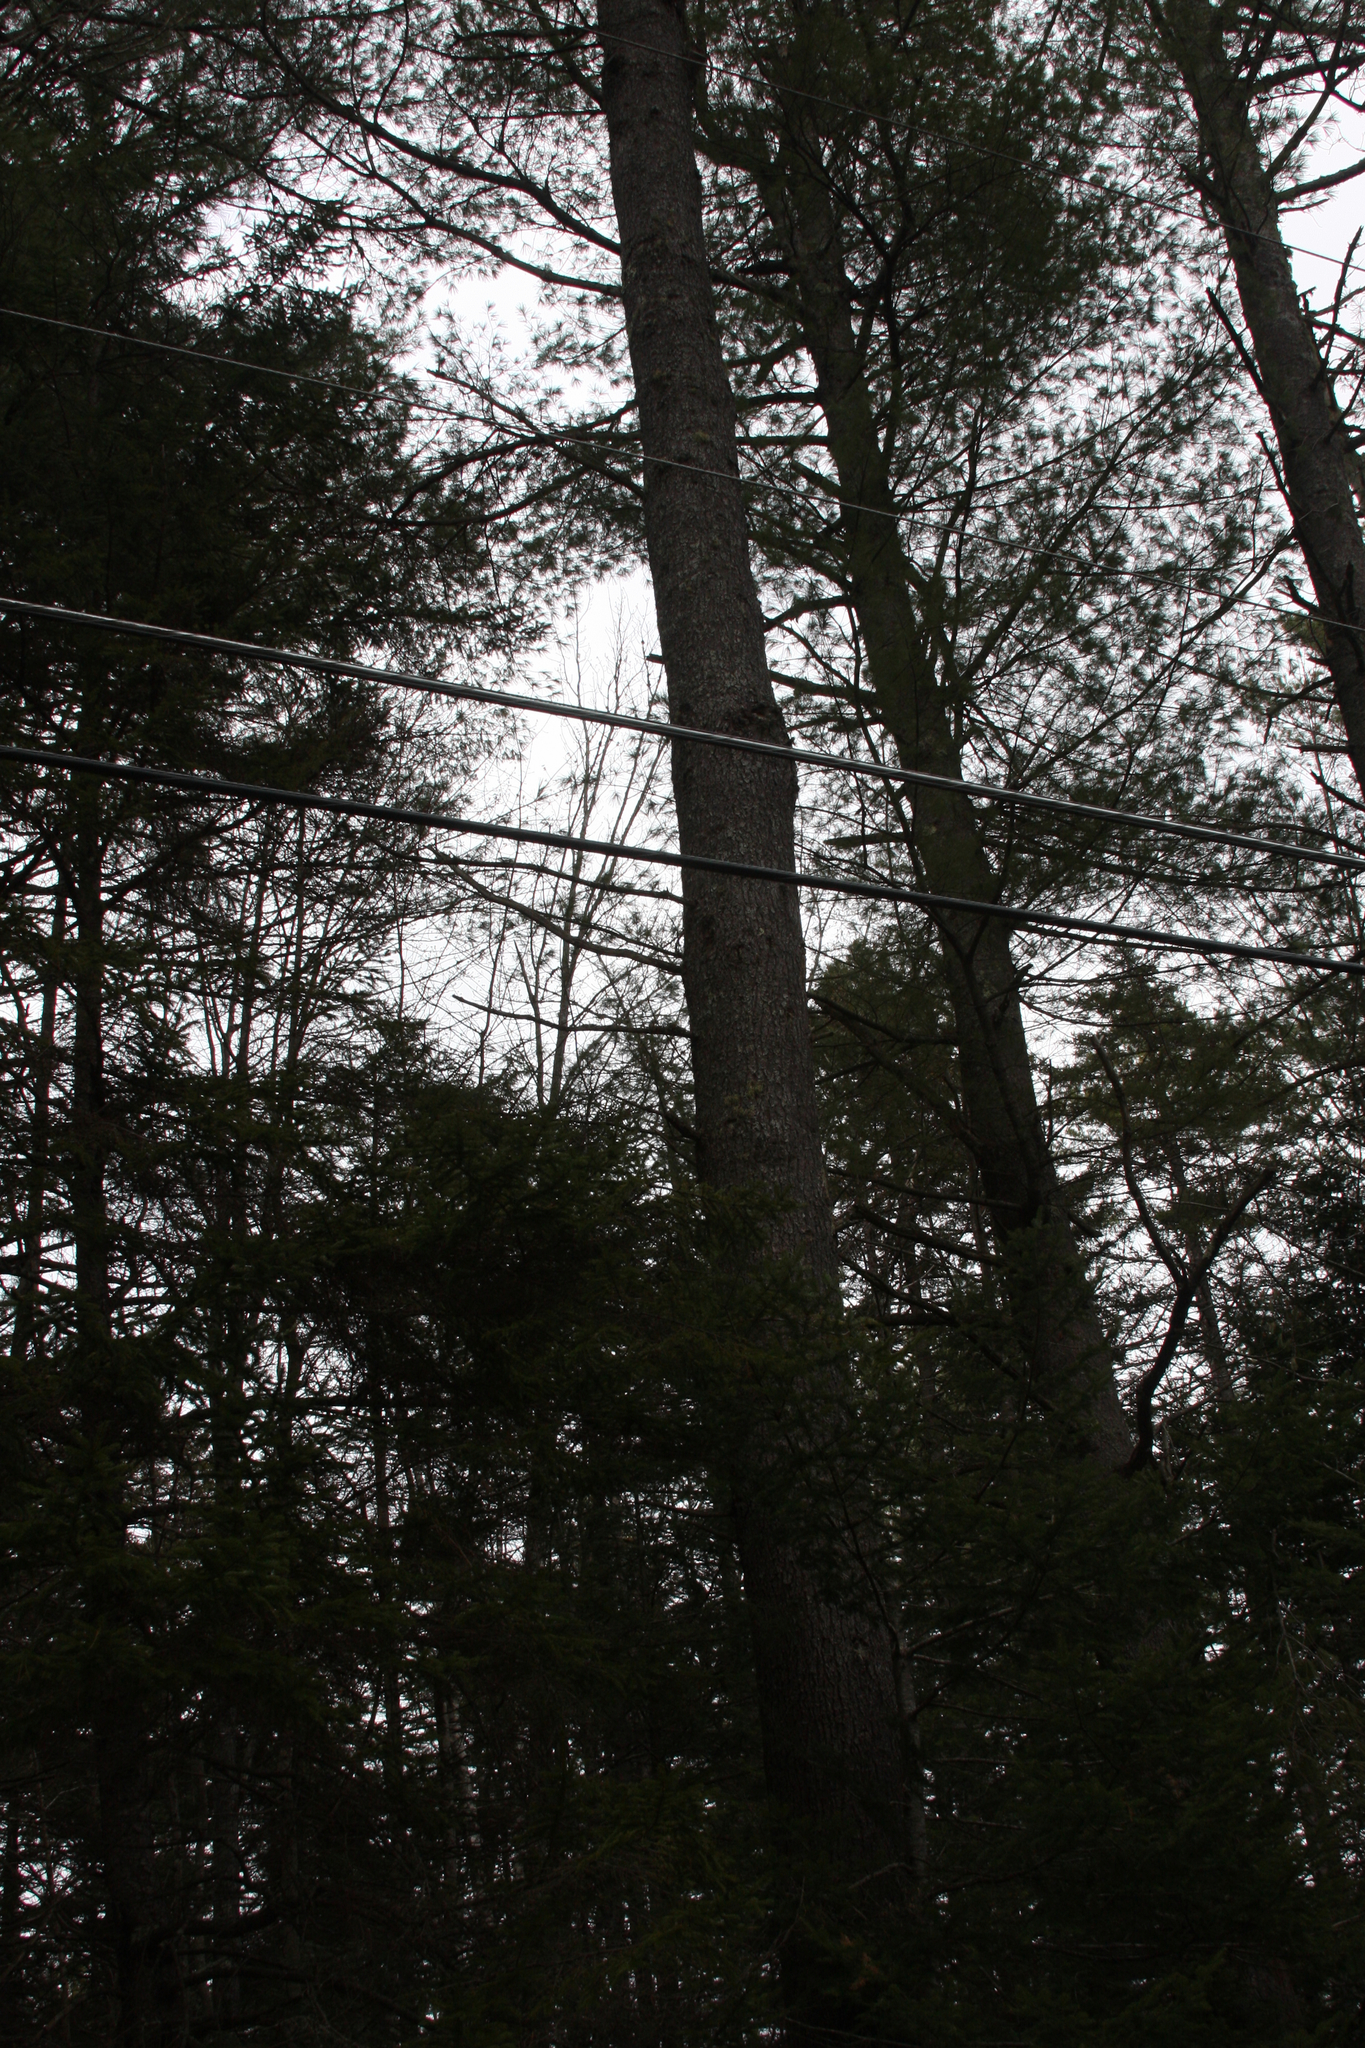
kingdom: Plantae
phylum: Tracheophyta
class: Pinopsida
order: Pinales
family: Pinaceae
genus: Pinus
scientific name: Pinus strobus
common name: Weymouth pine
